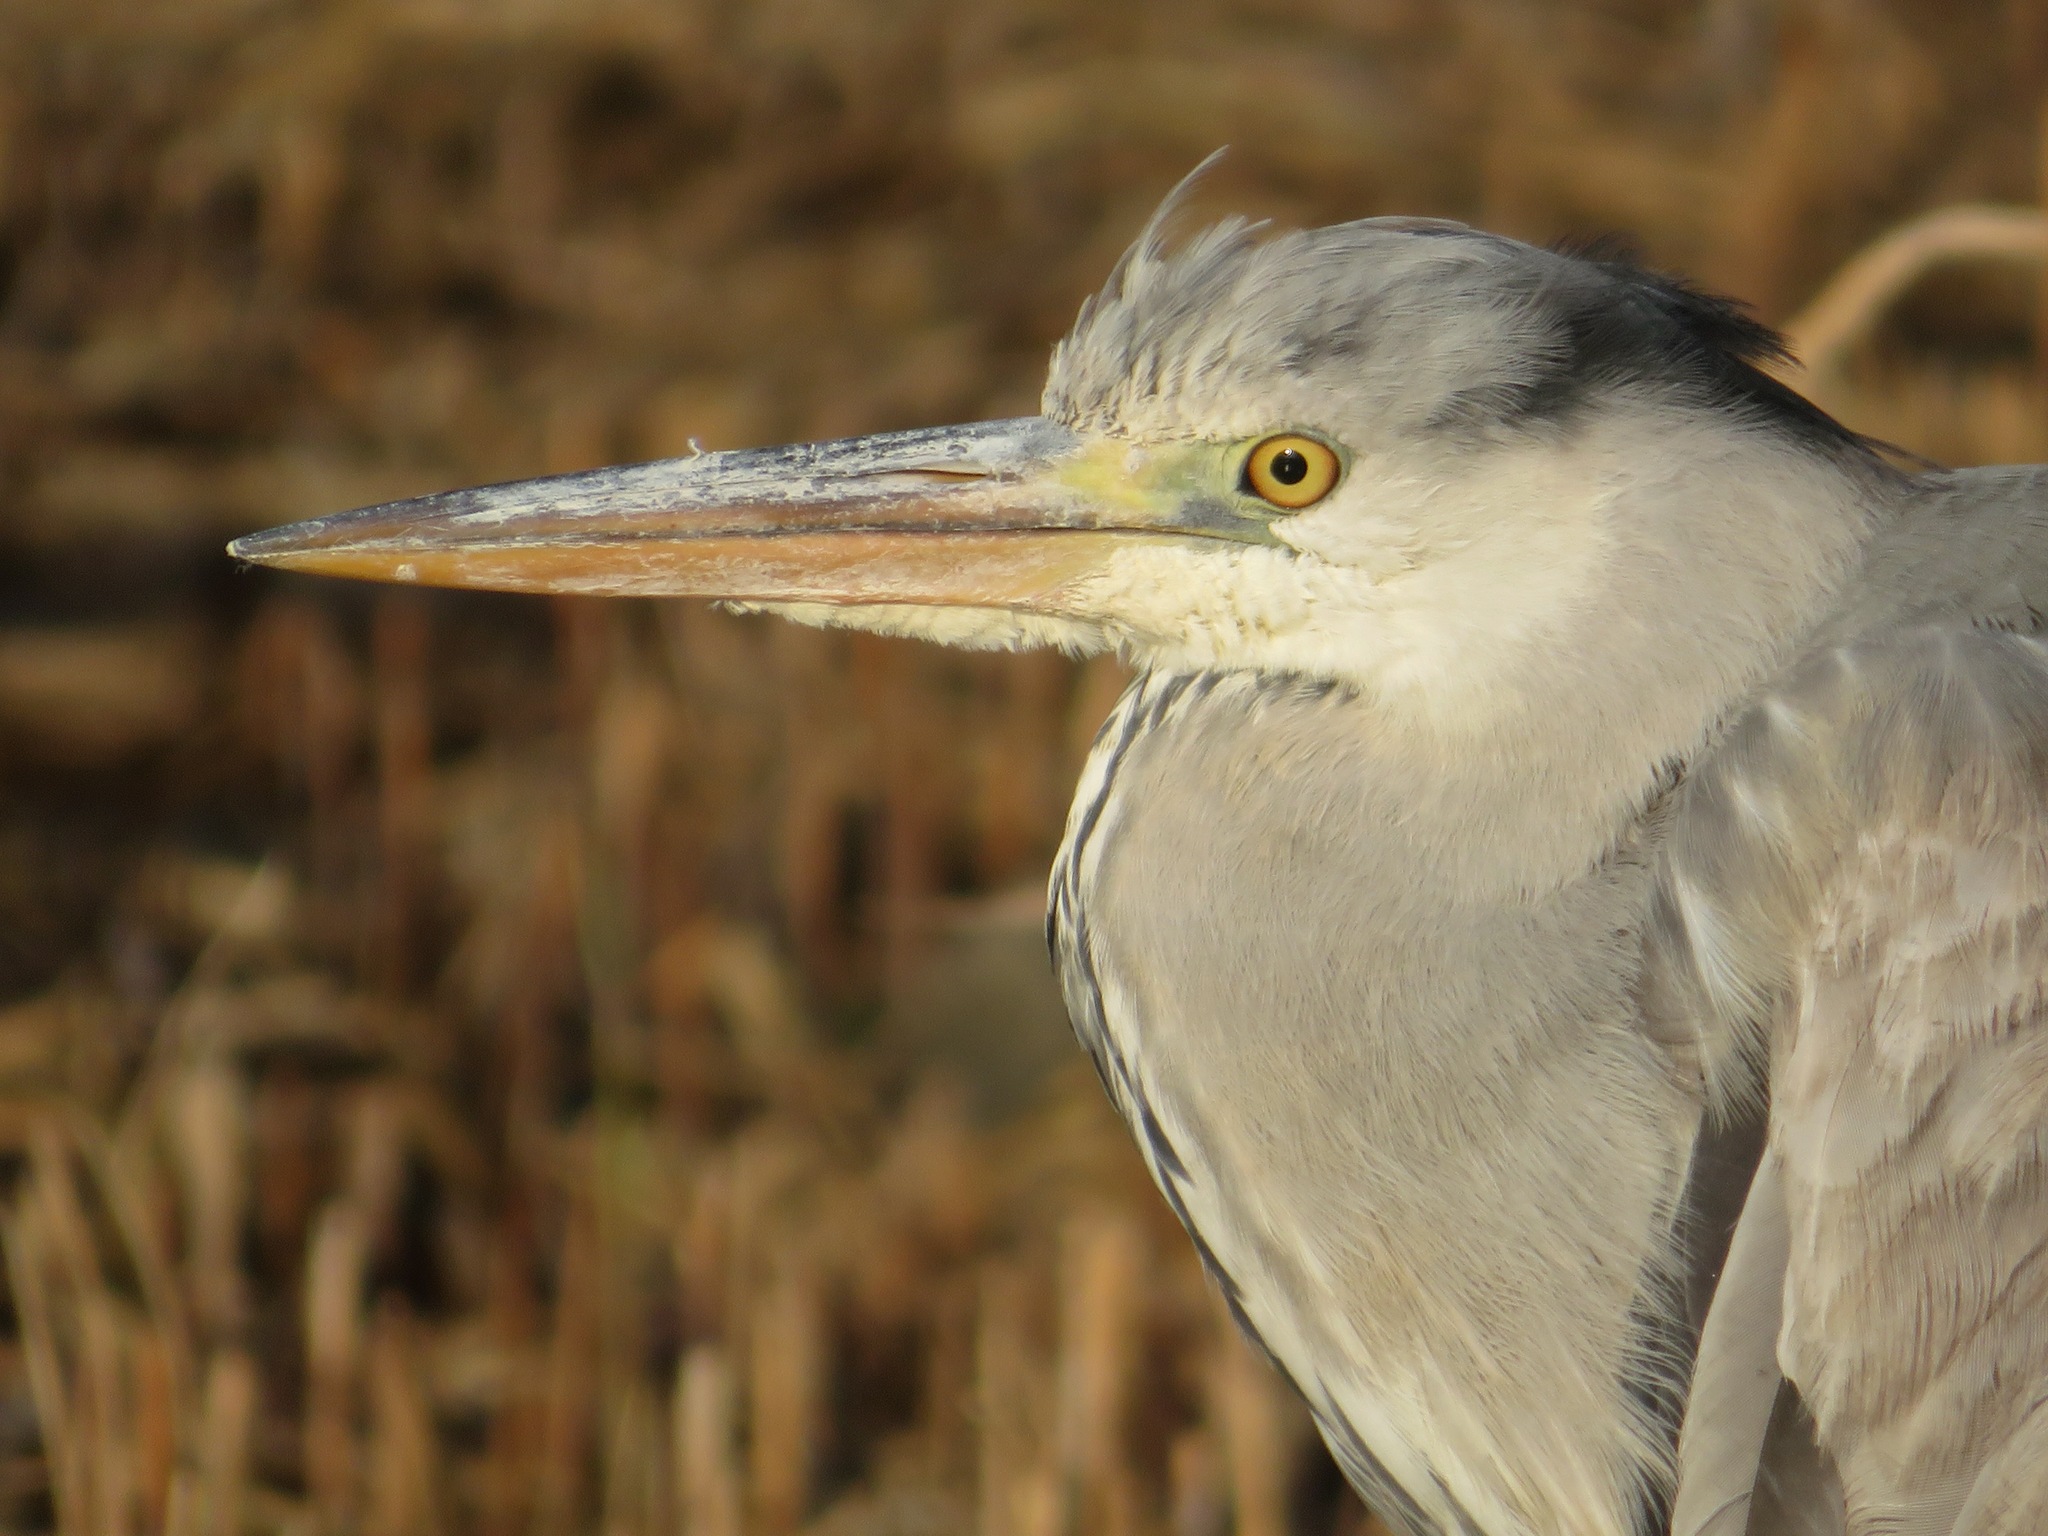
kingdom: Animalia
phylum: Chordata
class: Aves
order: Pelecaniformes
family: Ardeidae
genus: Ardea
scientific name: Ardea cinerea
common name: Grey heron
